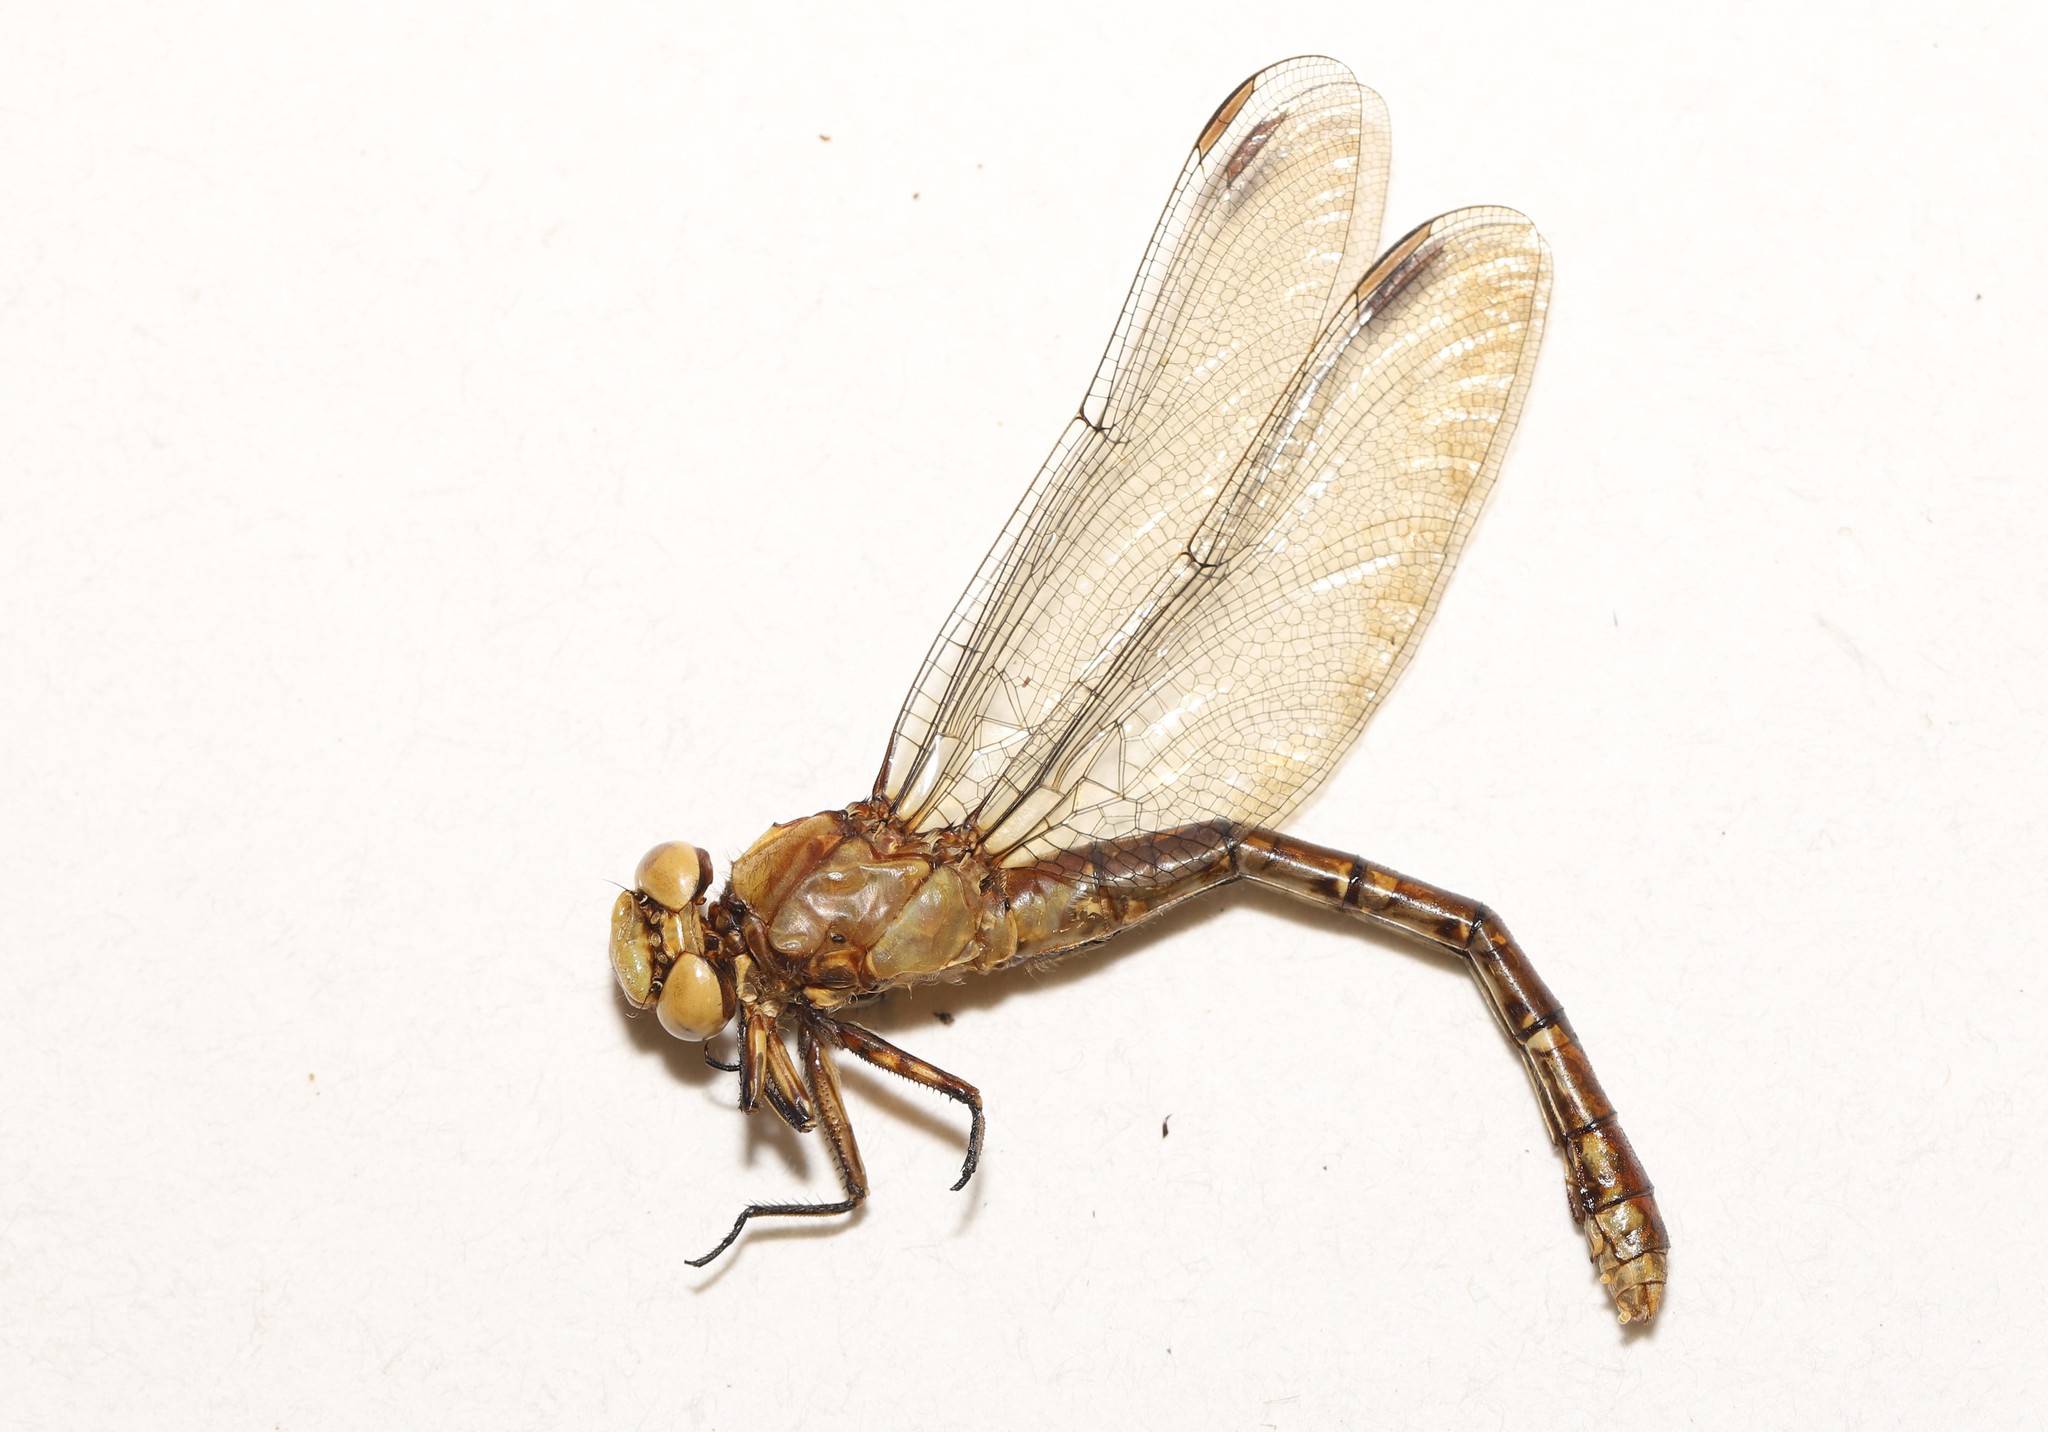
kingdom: Animalia
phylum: Arthropoda
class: Insecta
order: Odonata
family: Gomphidae
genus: Ophiogomphus
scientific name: Ophiogomphus rupinsulensis
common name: Rusty snaketail
